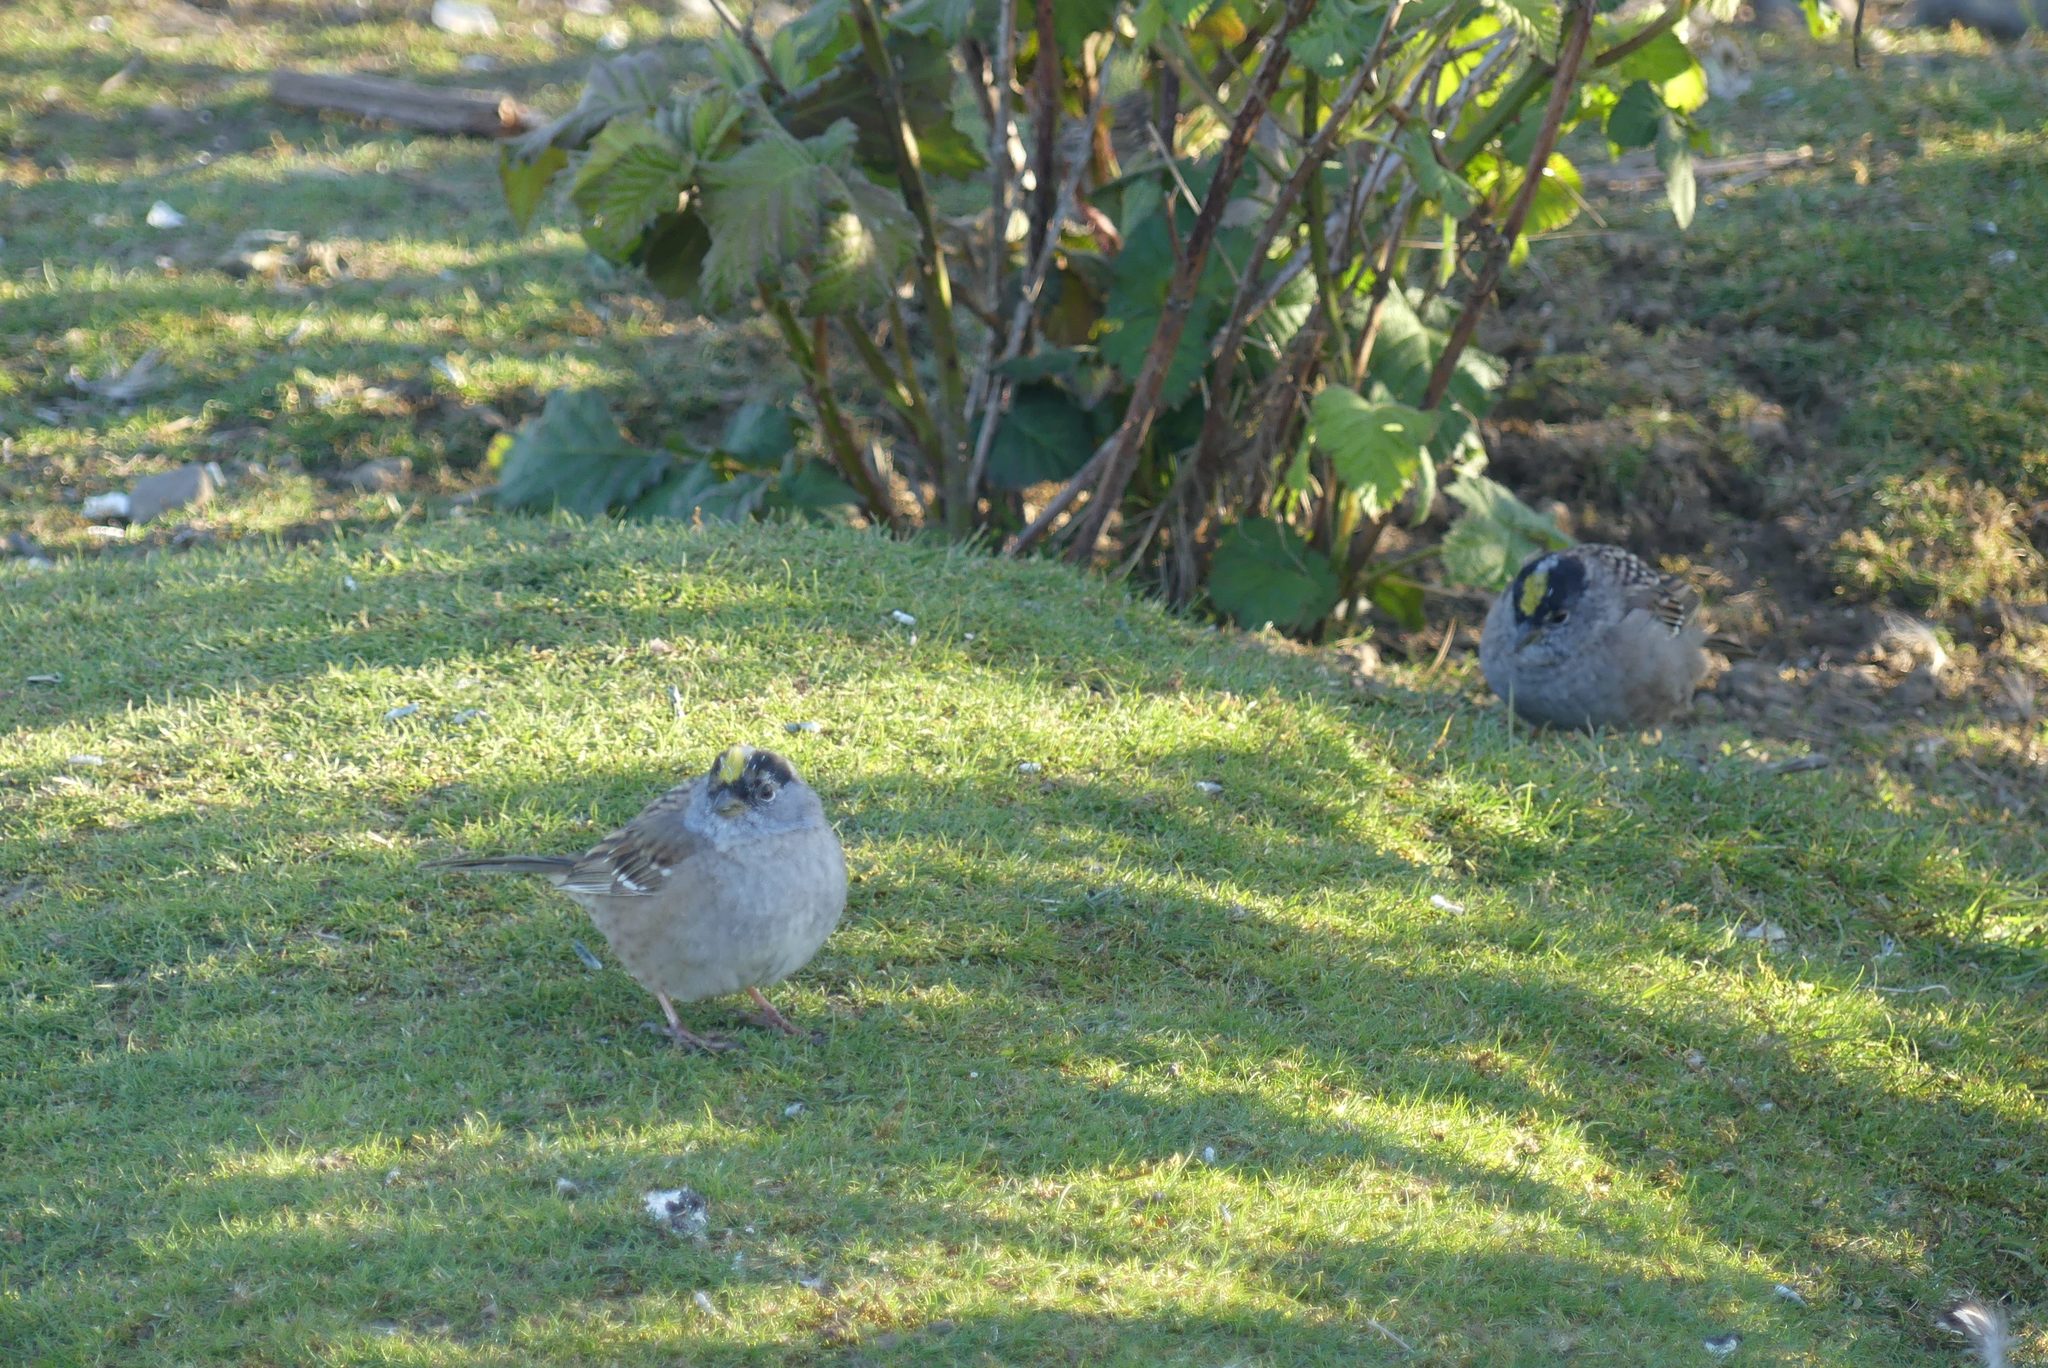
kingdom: Animalia
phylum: Chordata
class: Aves
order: Passeriformes
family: Passerellidae
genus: Zonotrichia
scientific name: Zonotrichia atricapilla
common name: Golden-crowned sparrow
